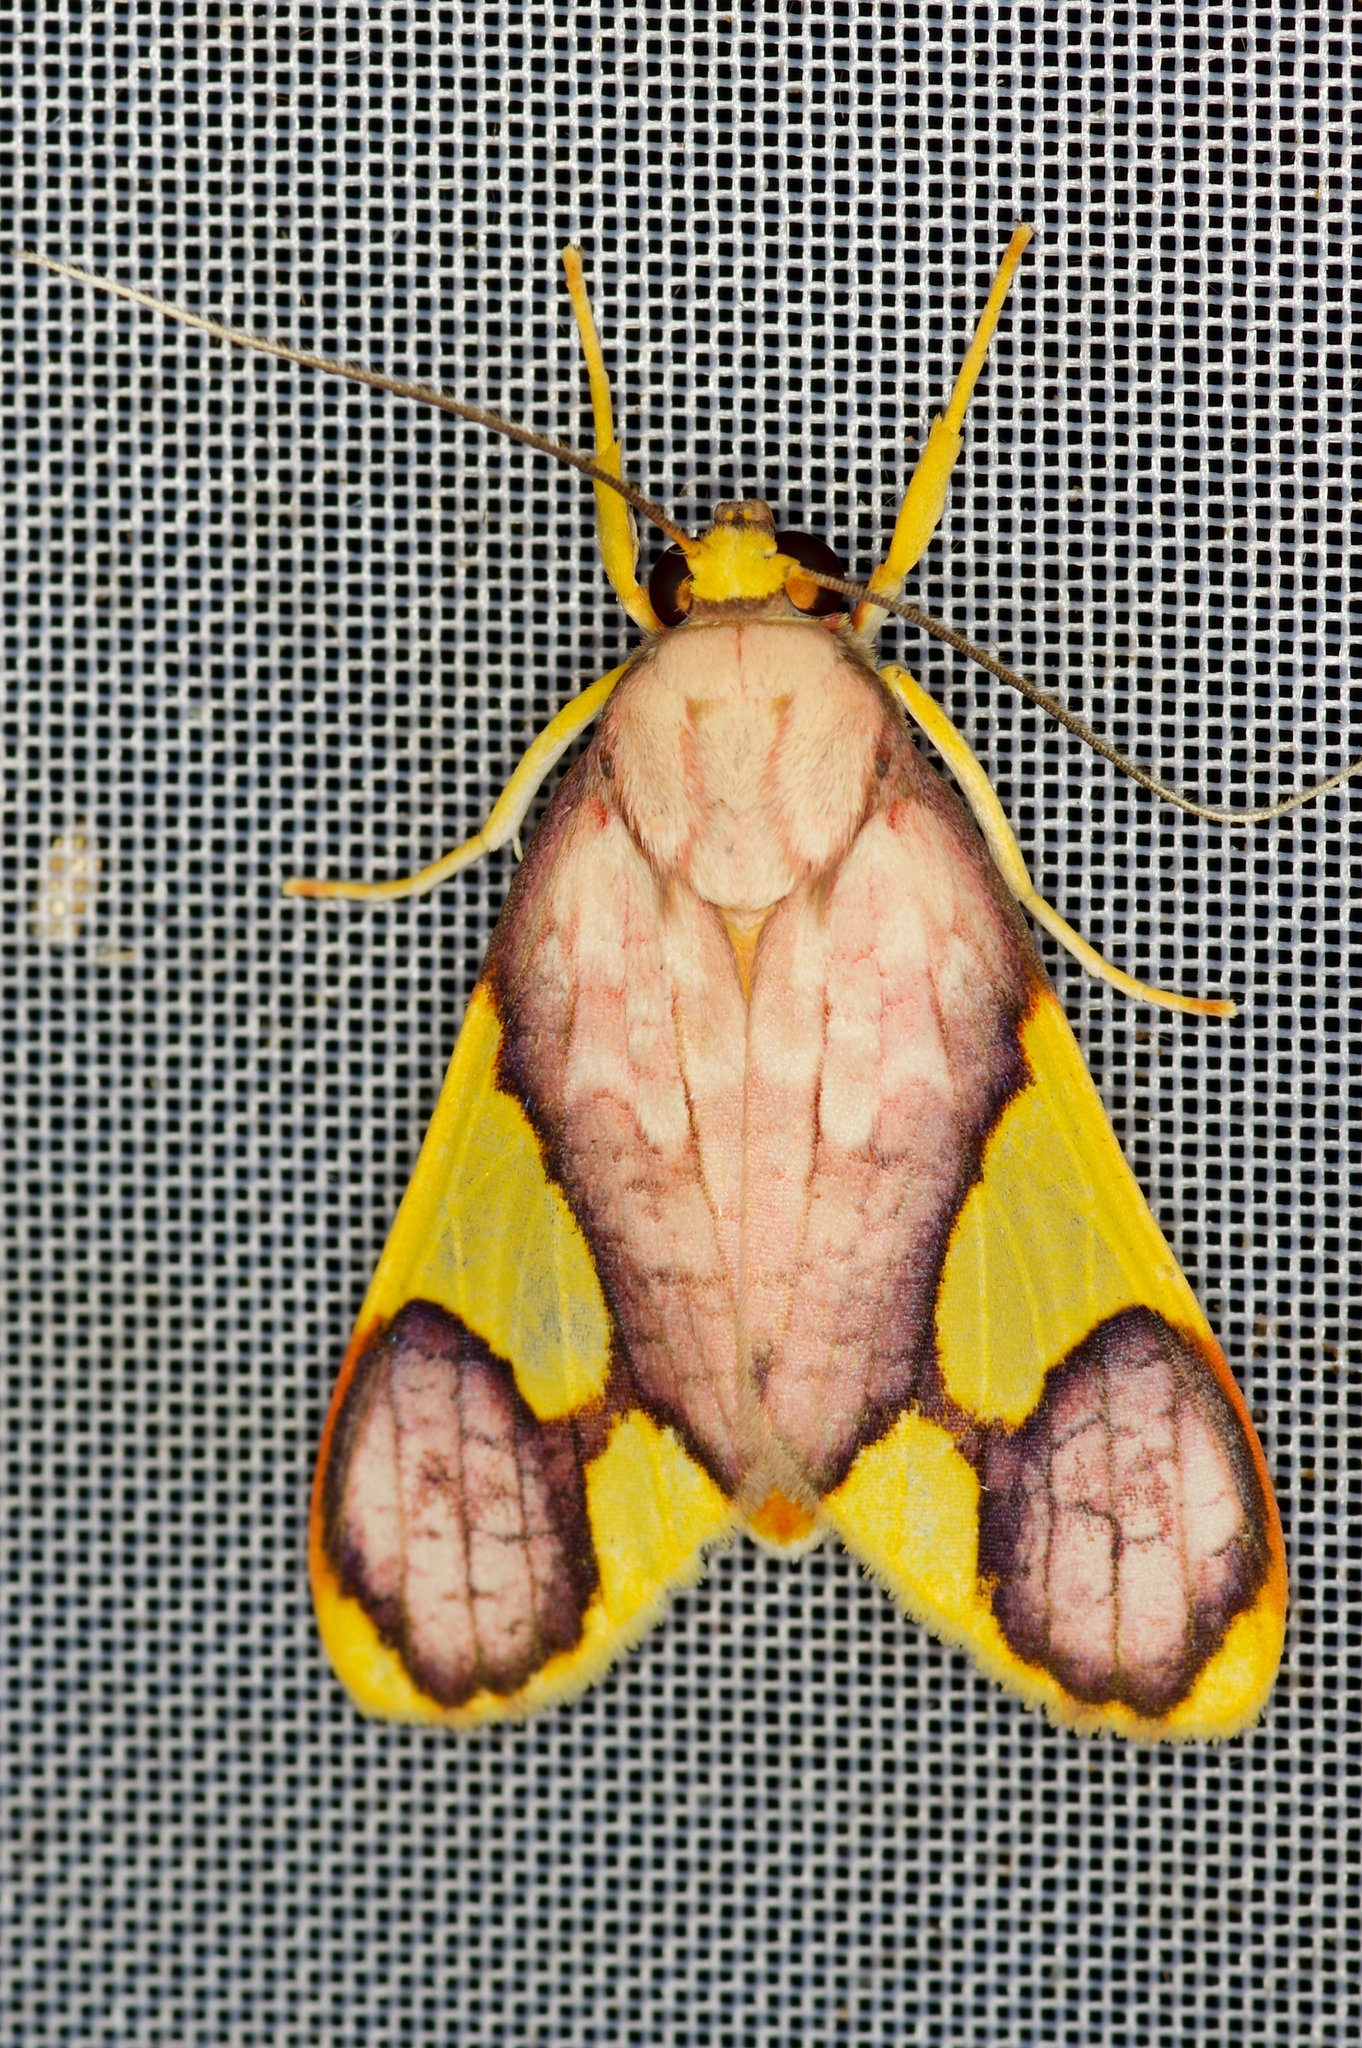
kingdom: Animalia
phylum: Arthropoda
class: Insecta
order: Lepidoptera
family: Erebidae
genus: Paranerita
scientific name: Paranerita metapyria
